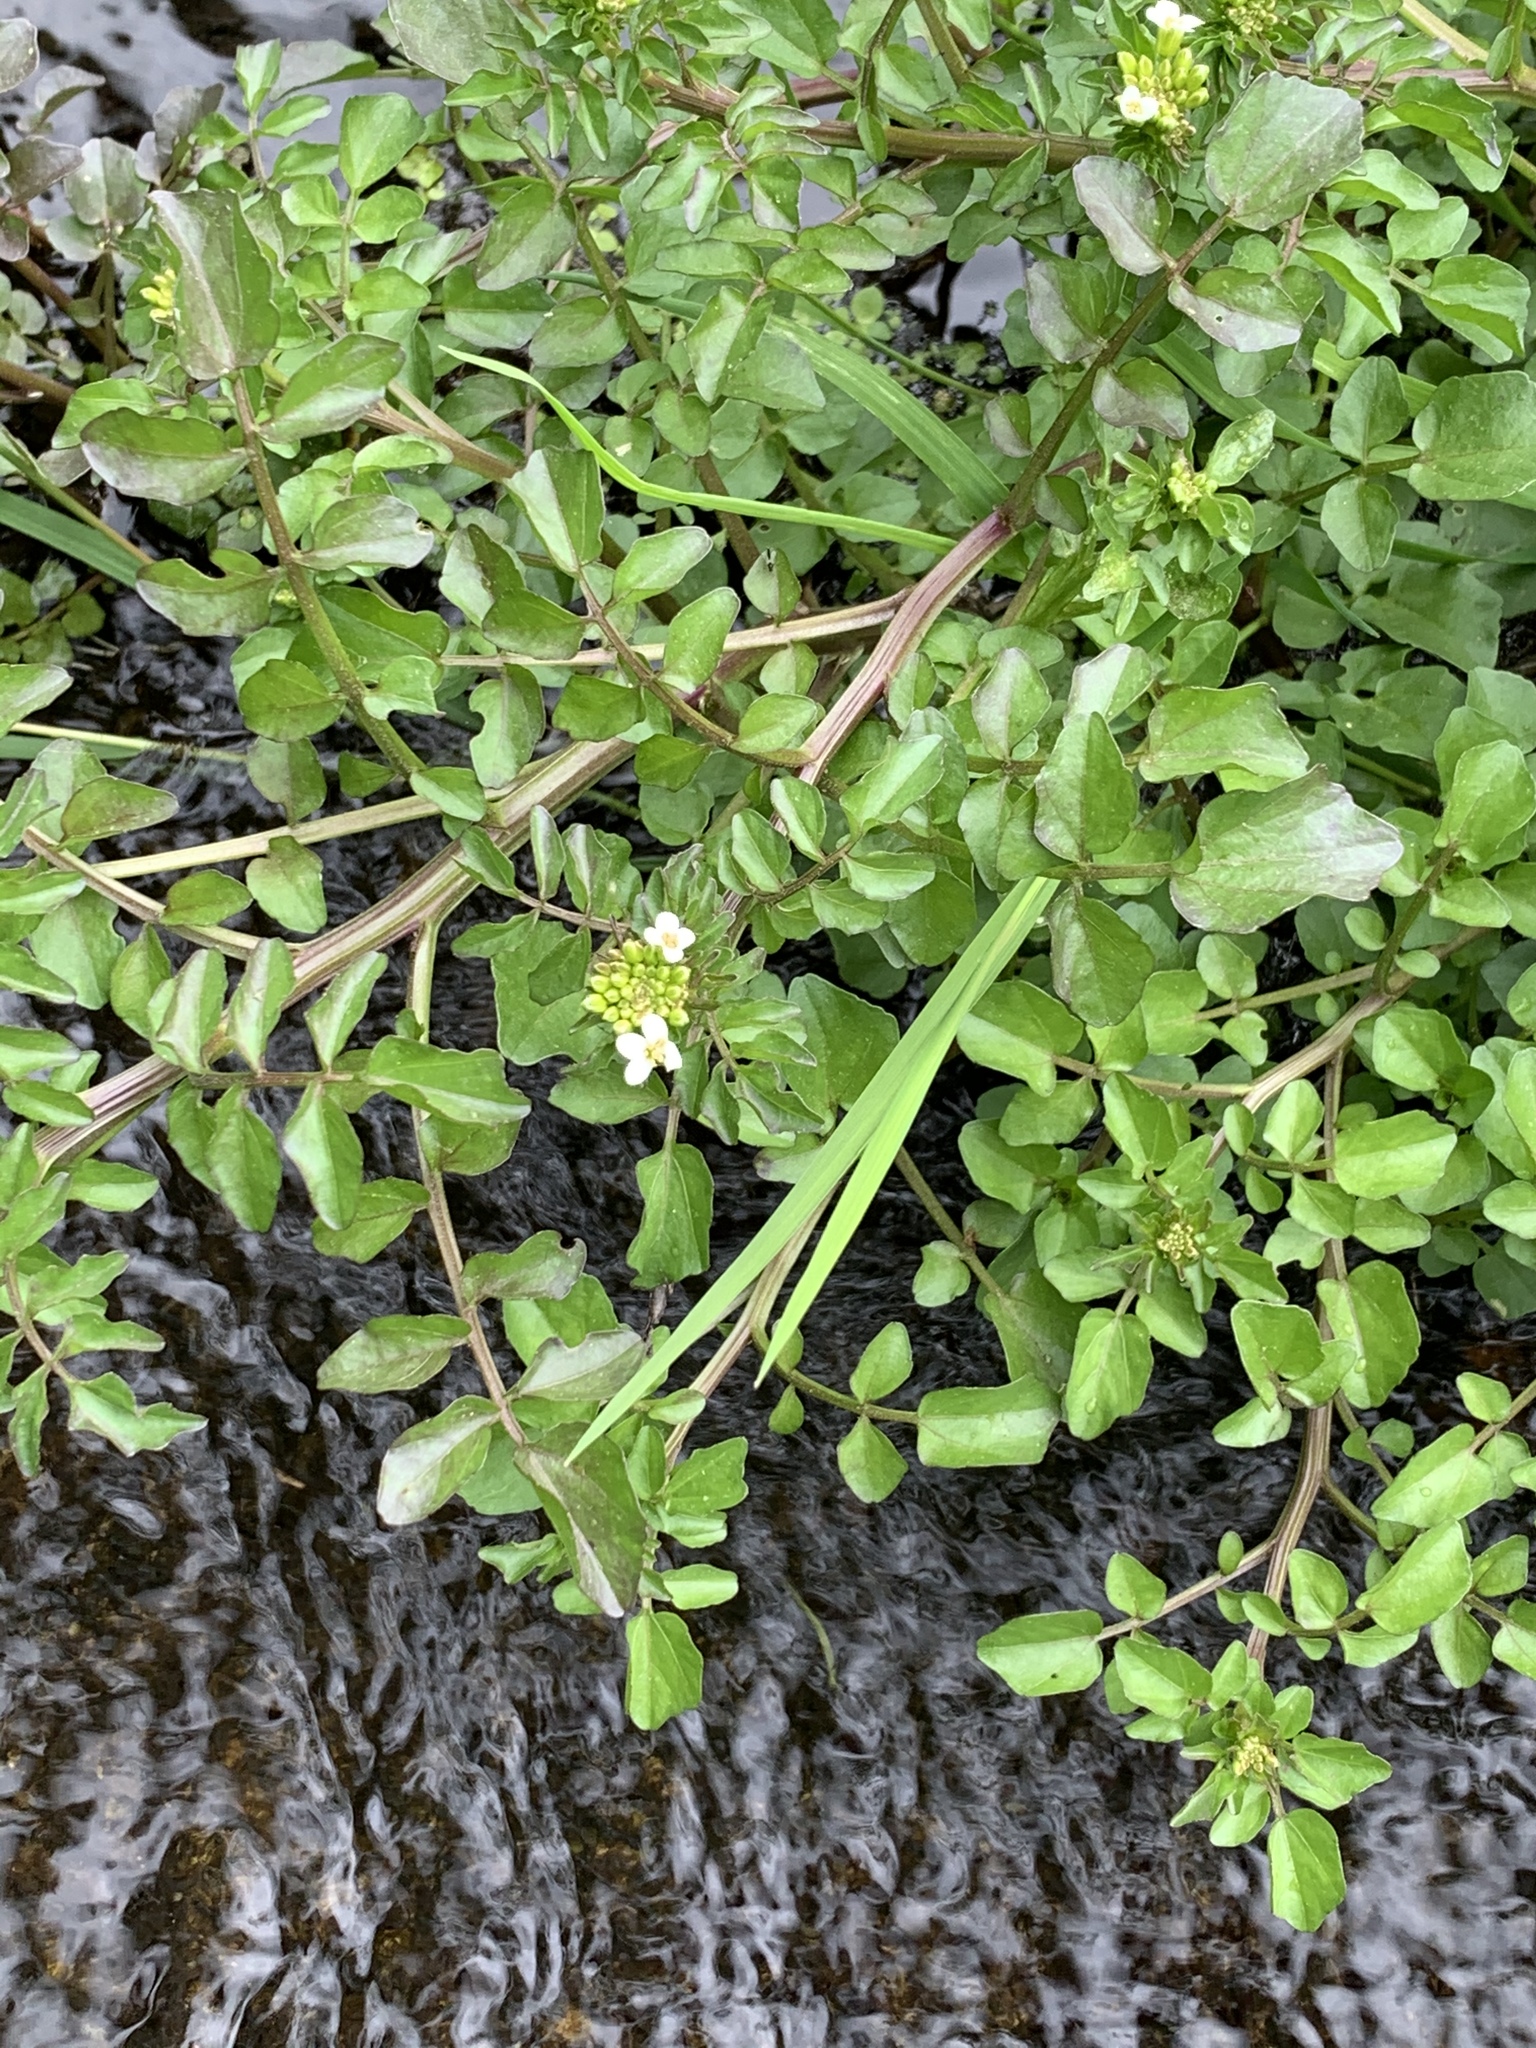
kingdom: Plantae
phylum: Tracheophyta
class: Magnoliopsida
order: Brassicales
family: Brassicaceae
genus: Nasturtium
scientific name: Nasturtium officinale
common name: Watercress
